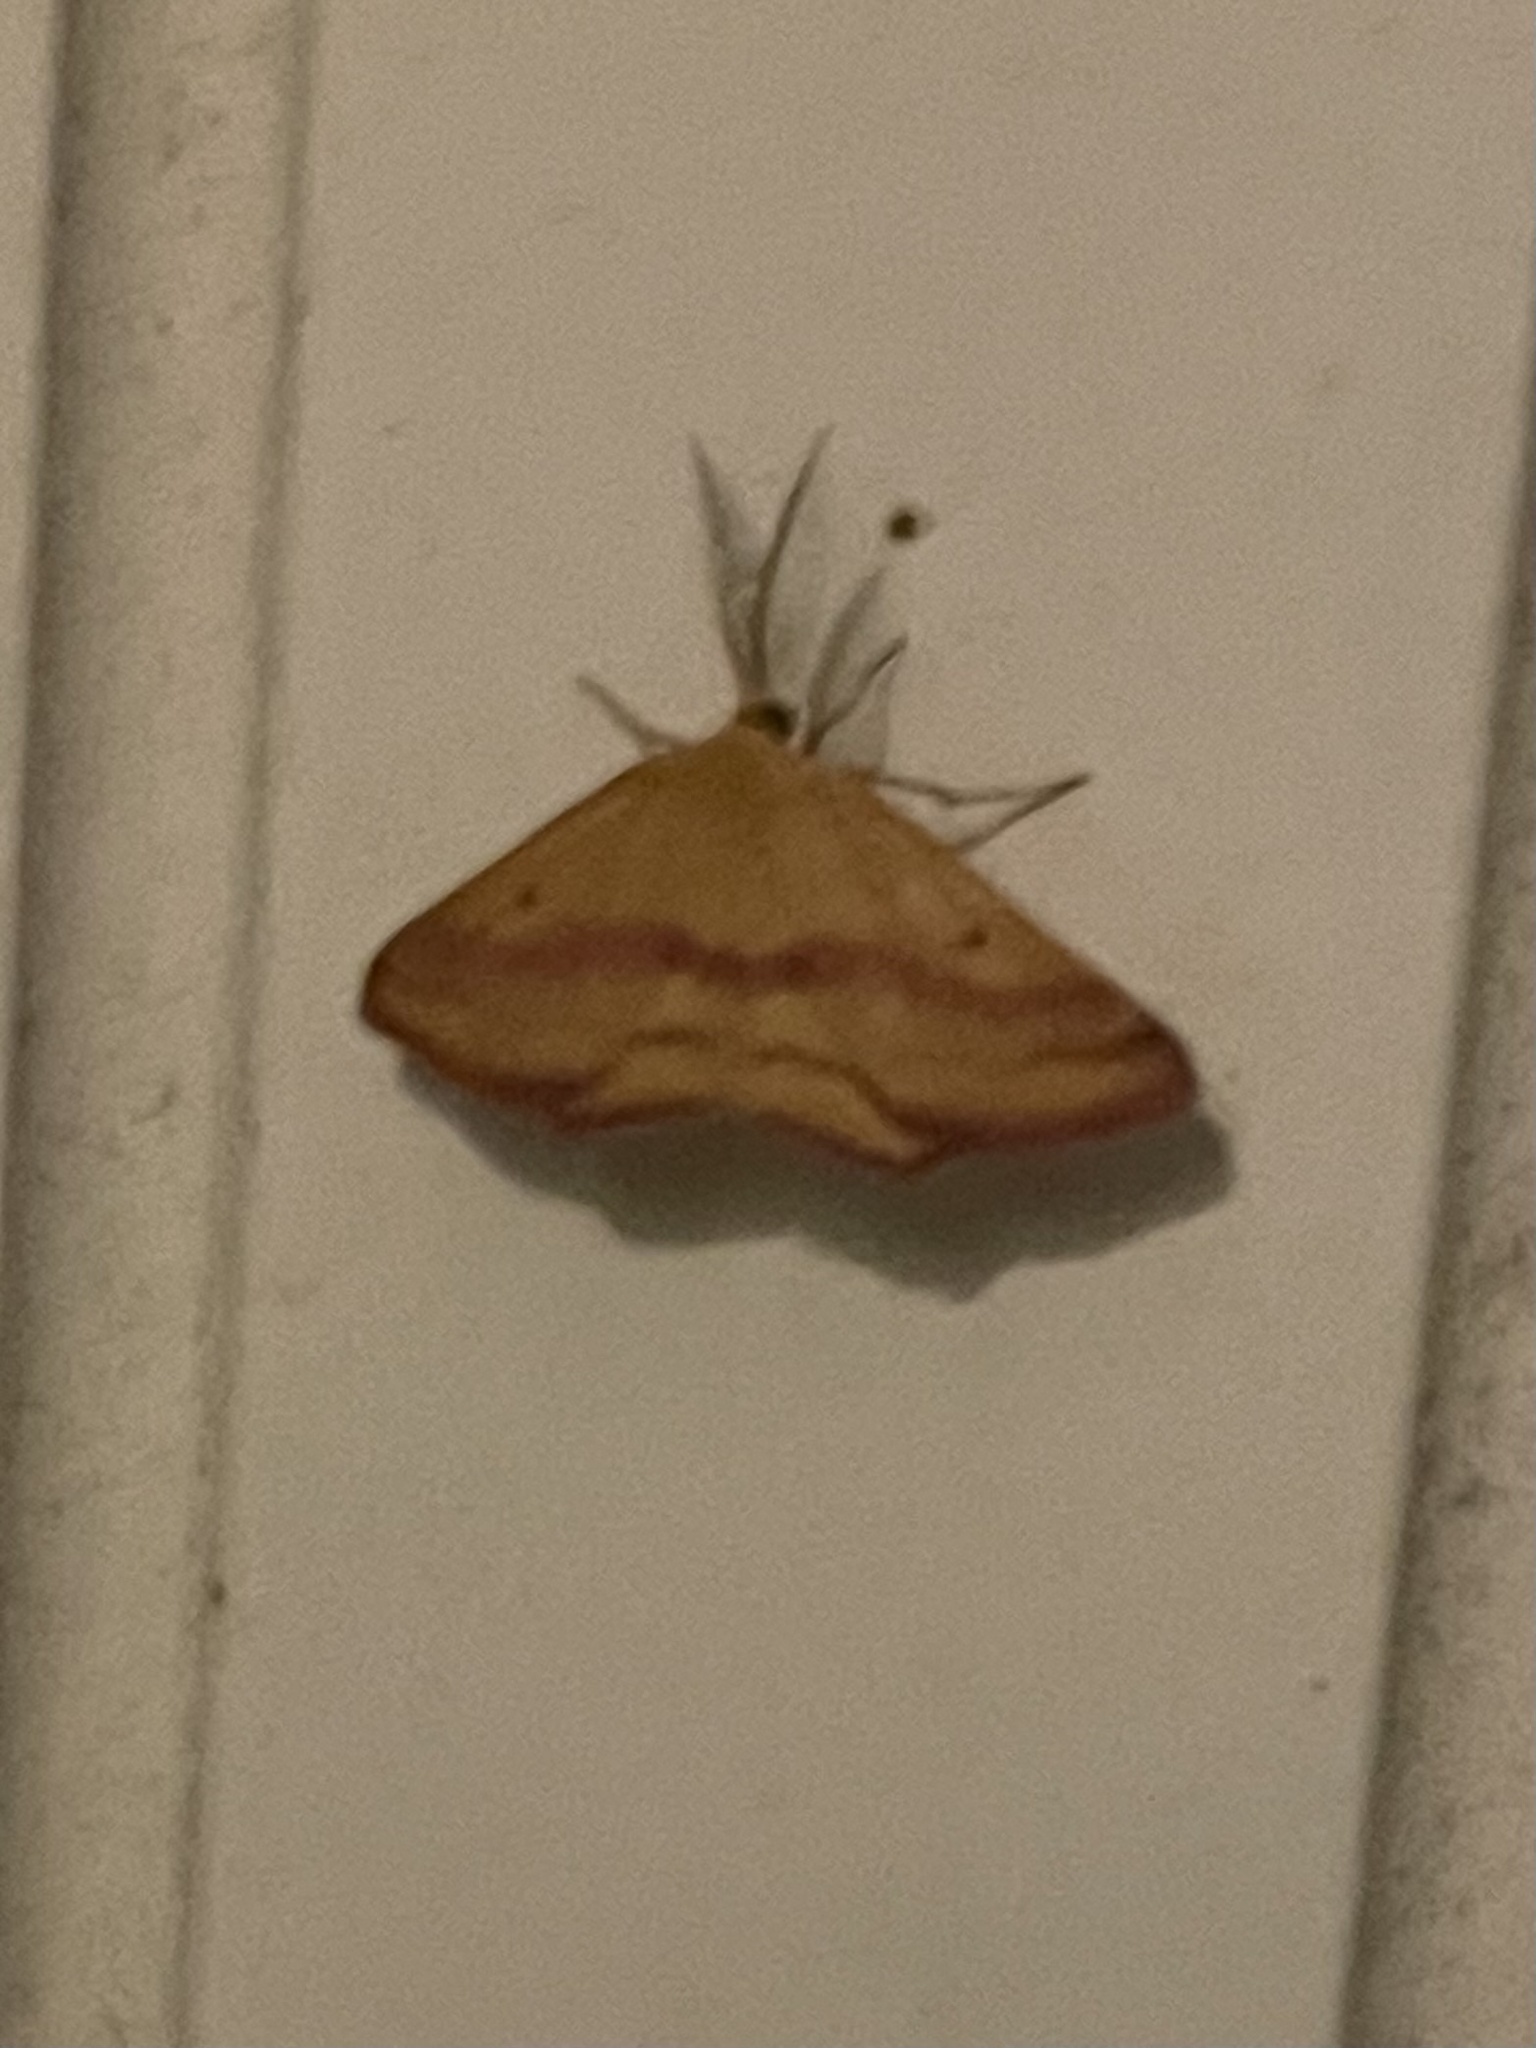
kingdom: Animalia
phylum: Arthropoda
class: Insecta
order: Lepidoptera
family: Geometridae
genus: Haematopis
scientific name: Haematopis grataria
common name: Chickweed geometer
